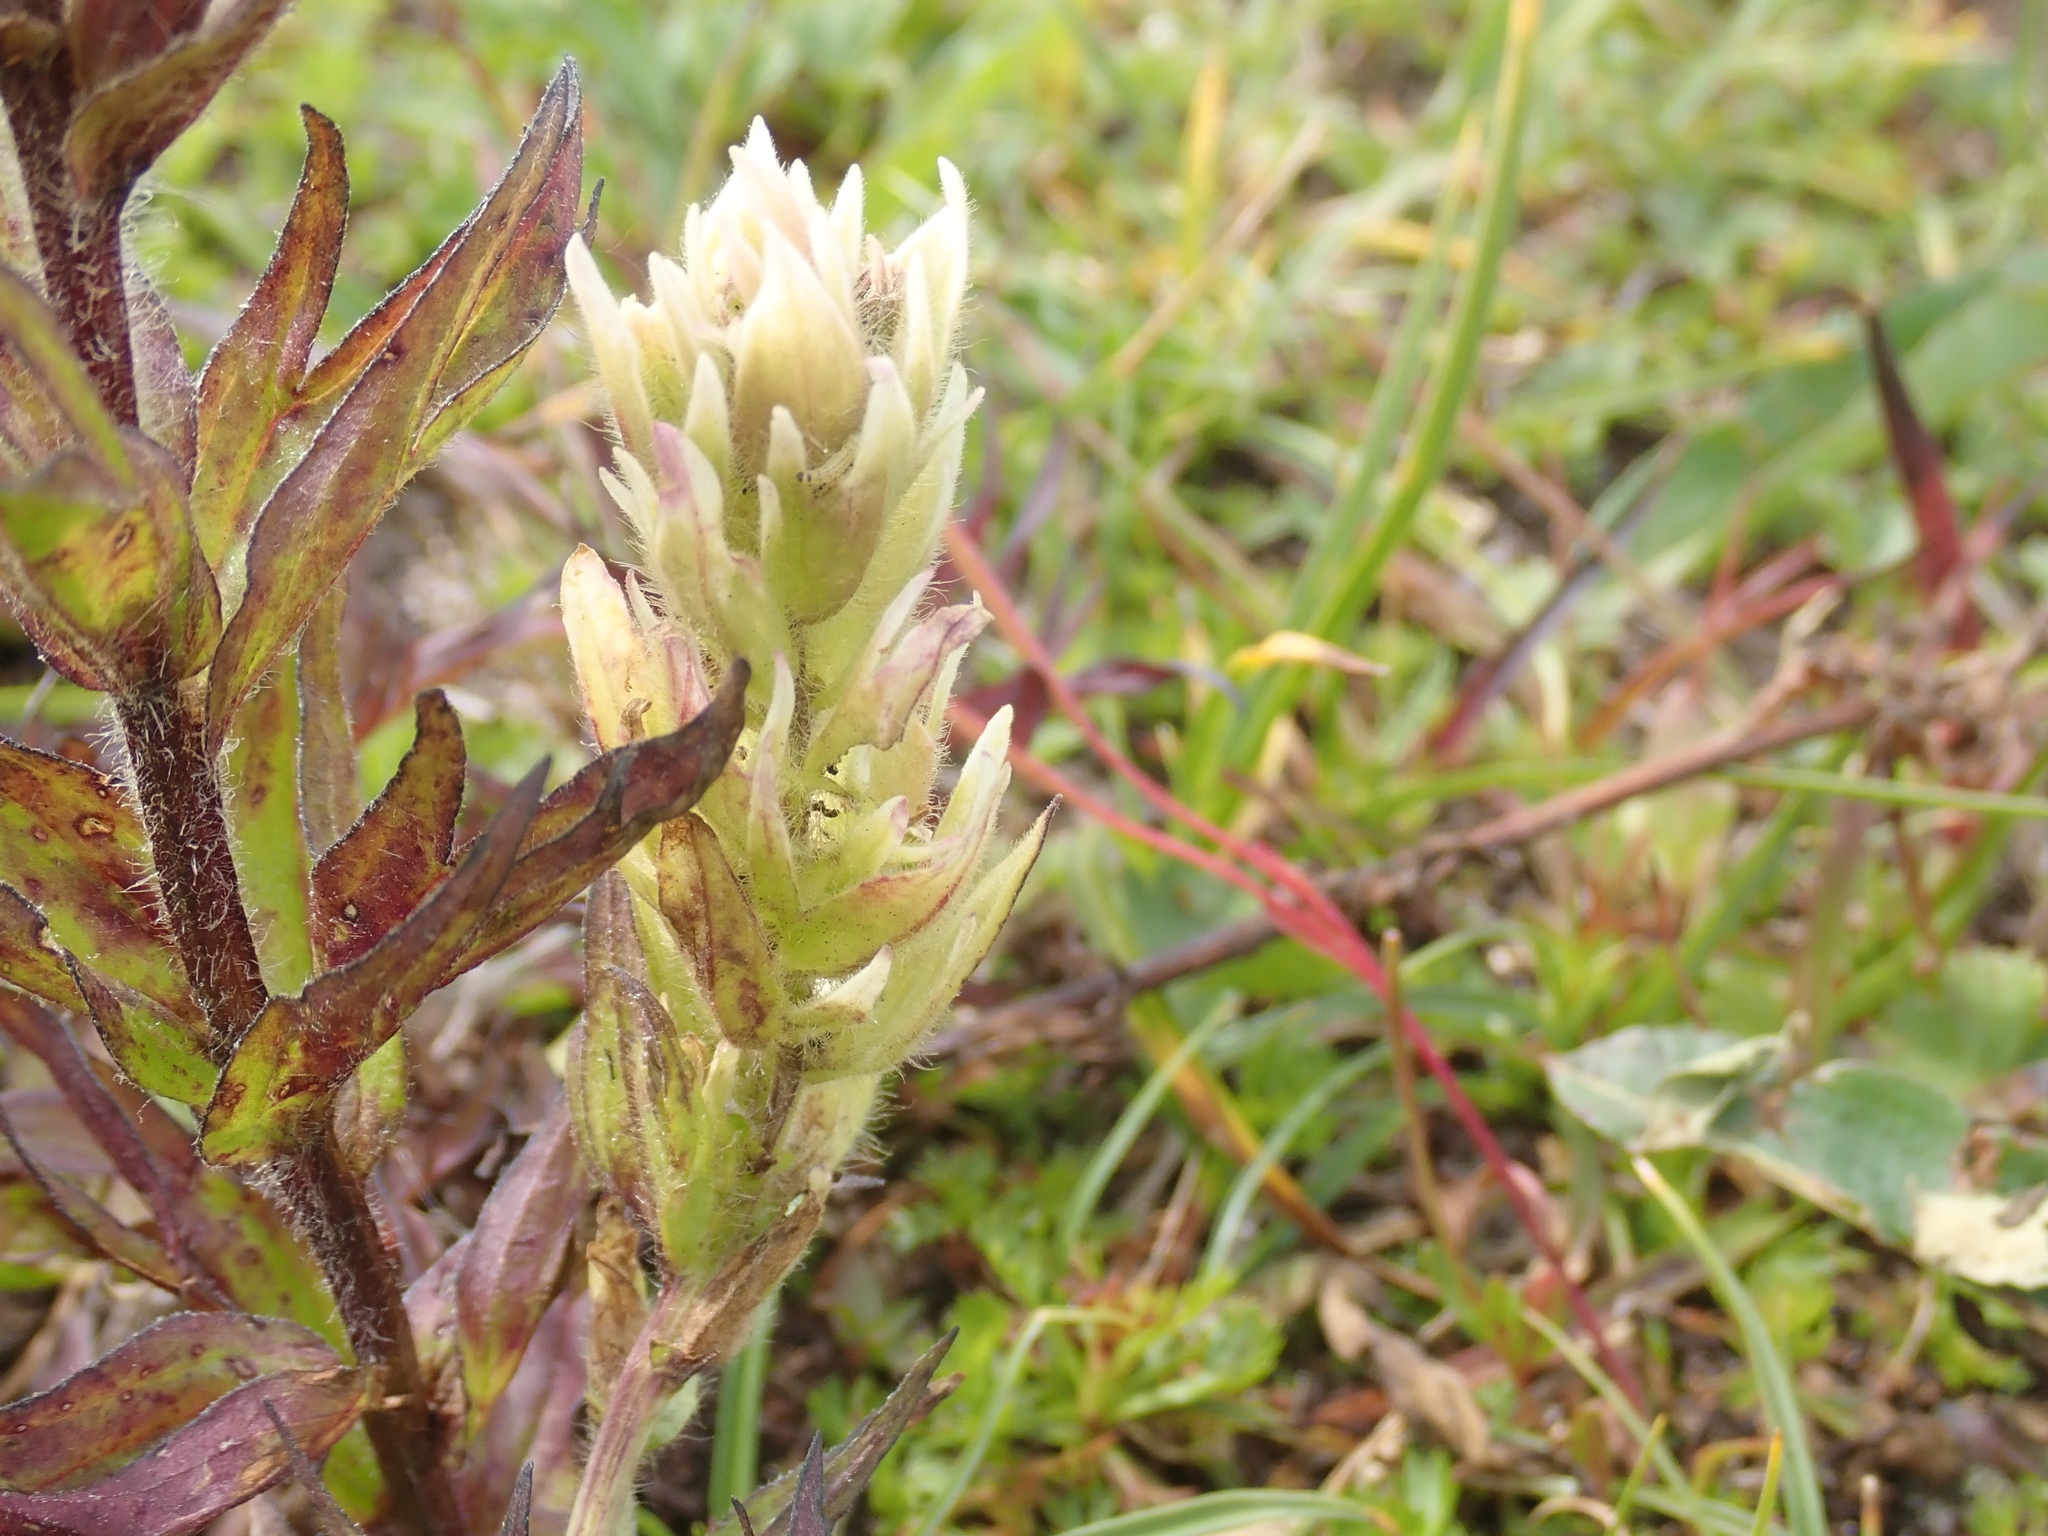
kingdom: Plantae
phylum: Tracheophyta
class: Magnoliopsida
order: Lamiales
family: Orobanchaceae
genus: Castilleja
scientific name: Castilleja parviflora
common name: Mountain paintbrush
